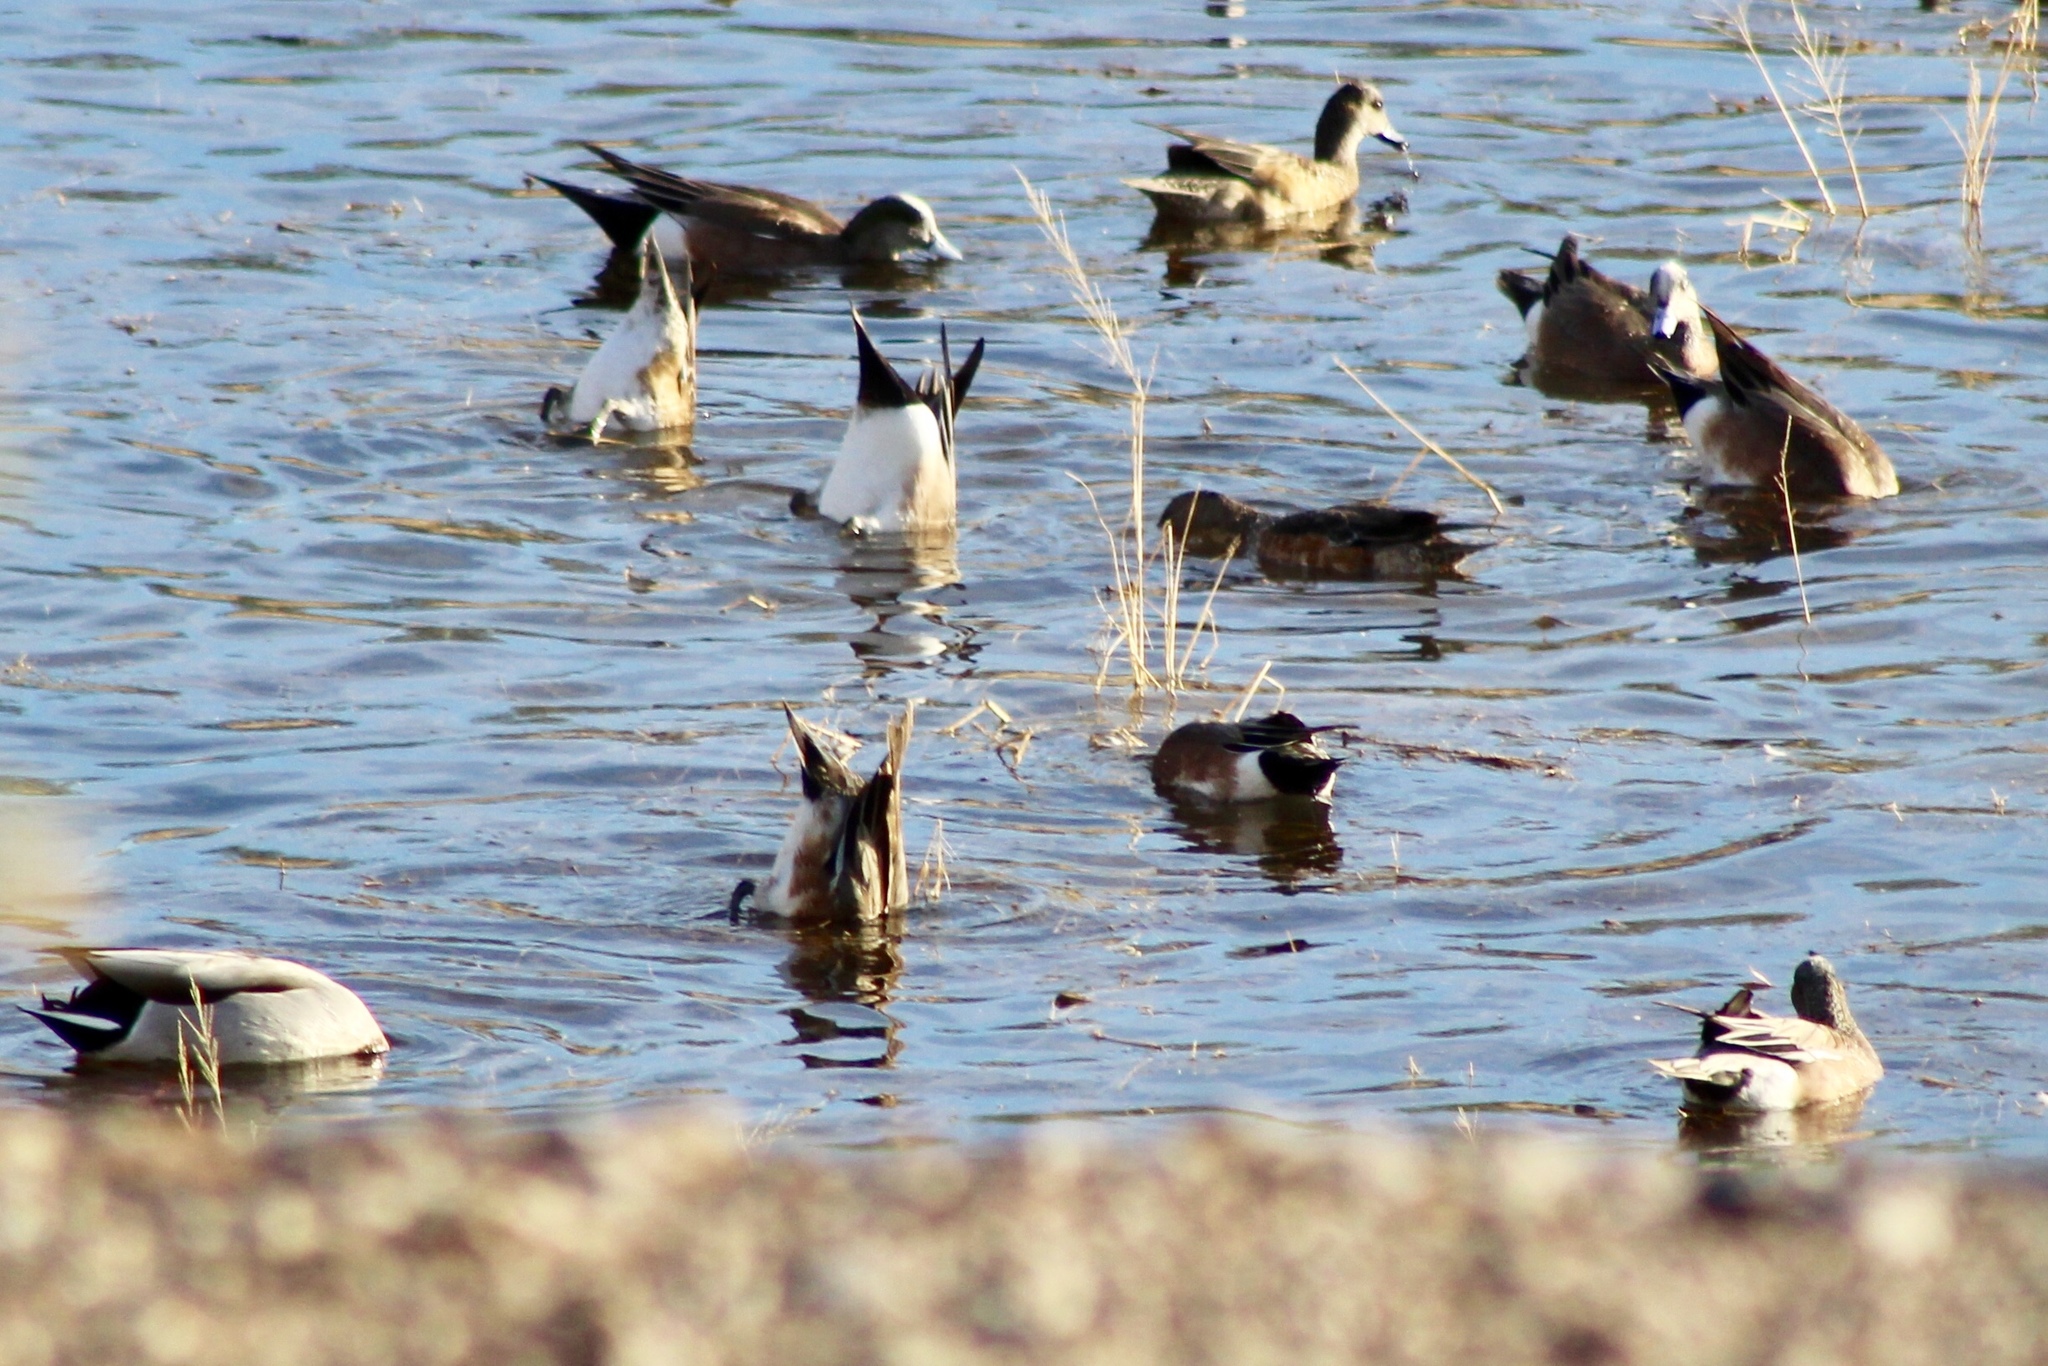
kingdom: Animalia
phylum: Chordata
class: Aves
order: Anseriformes
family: Anatidae
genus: Mareca
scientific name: Mareca americana
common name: American wigeon
